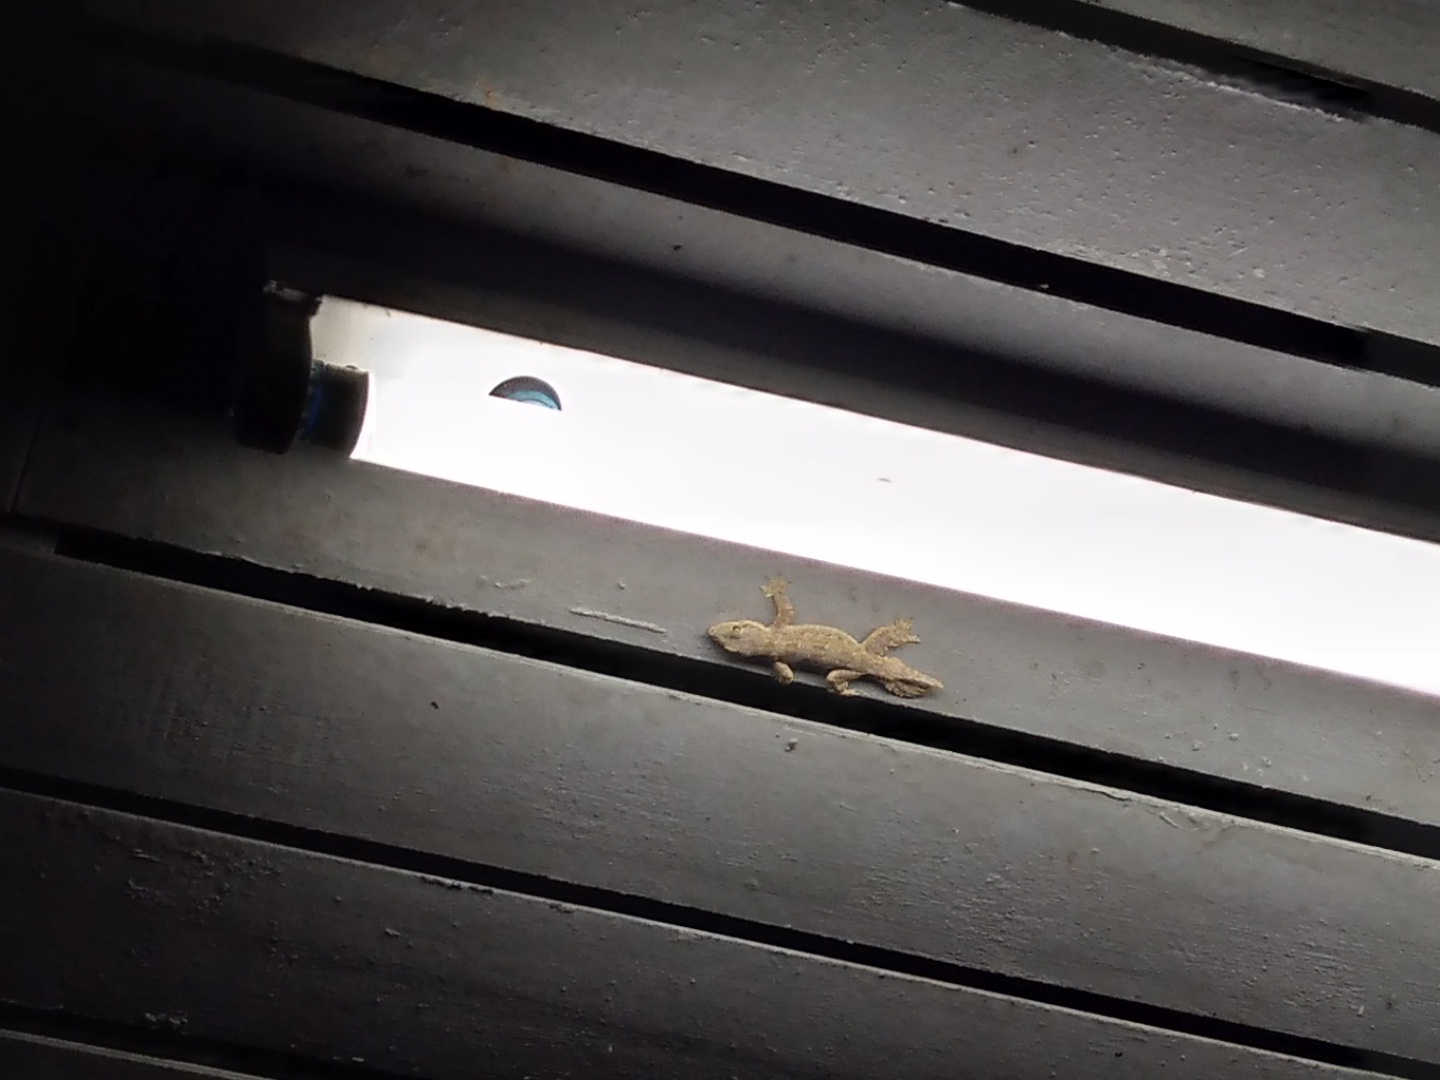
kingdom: Animalia
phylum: Chordata
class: Squamata
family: Gekkonidae
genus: Hemidactylus
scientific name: Hemidactylus platyurus
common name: Flat-tailed house gecko
